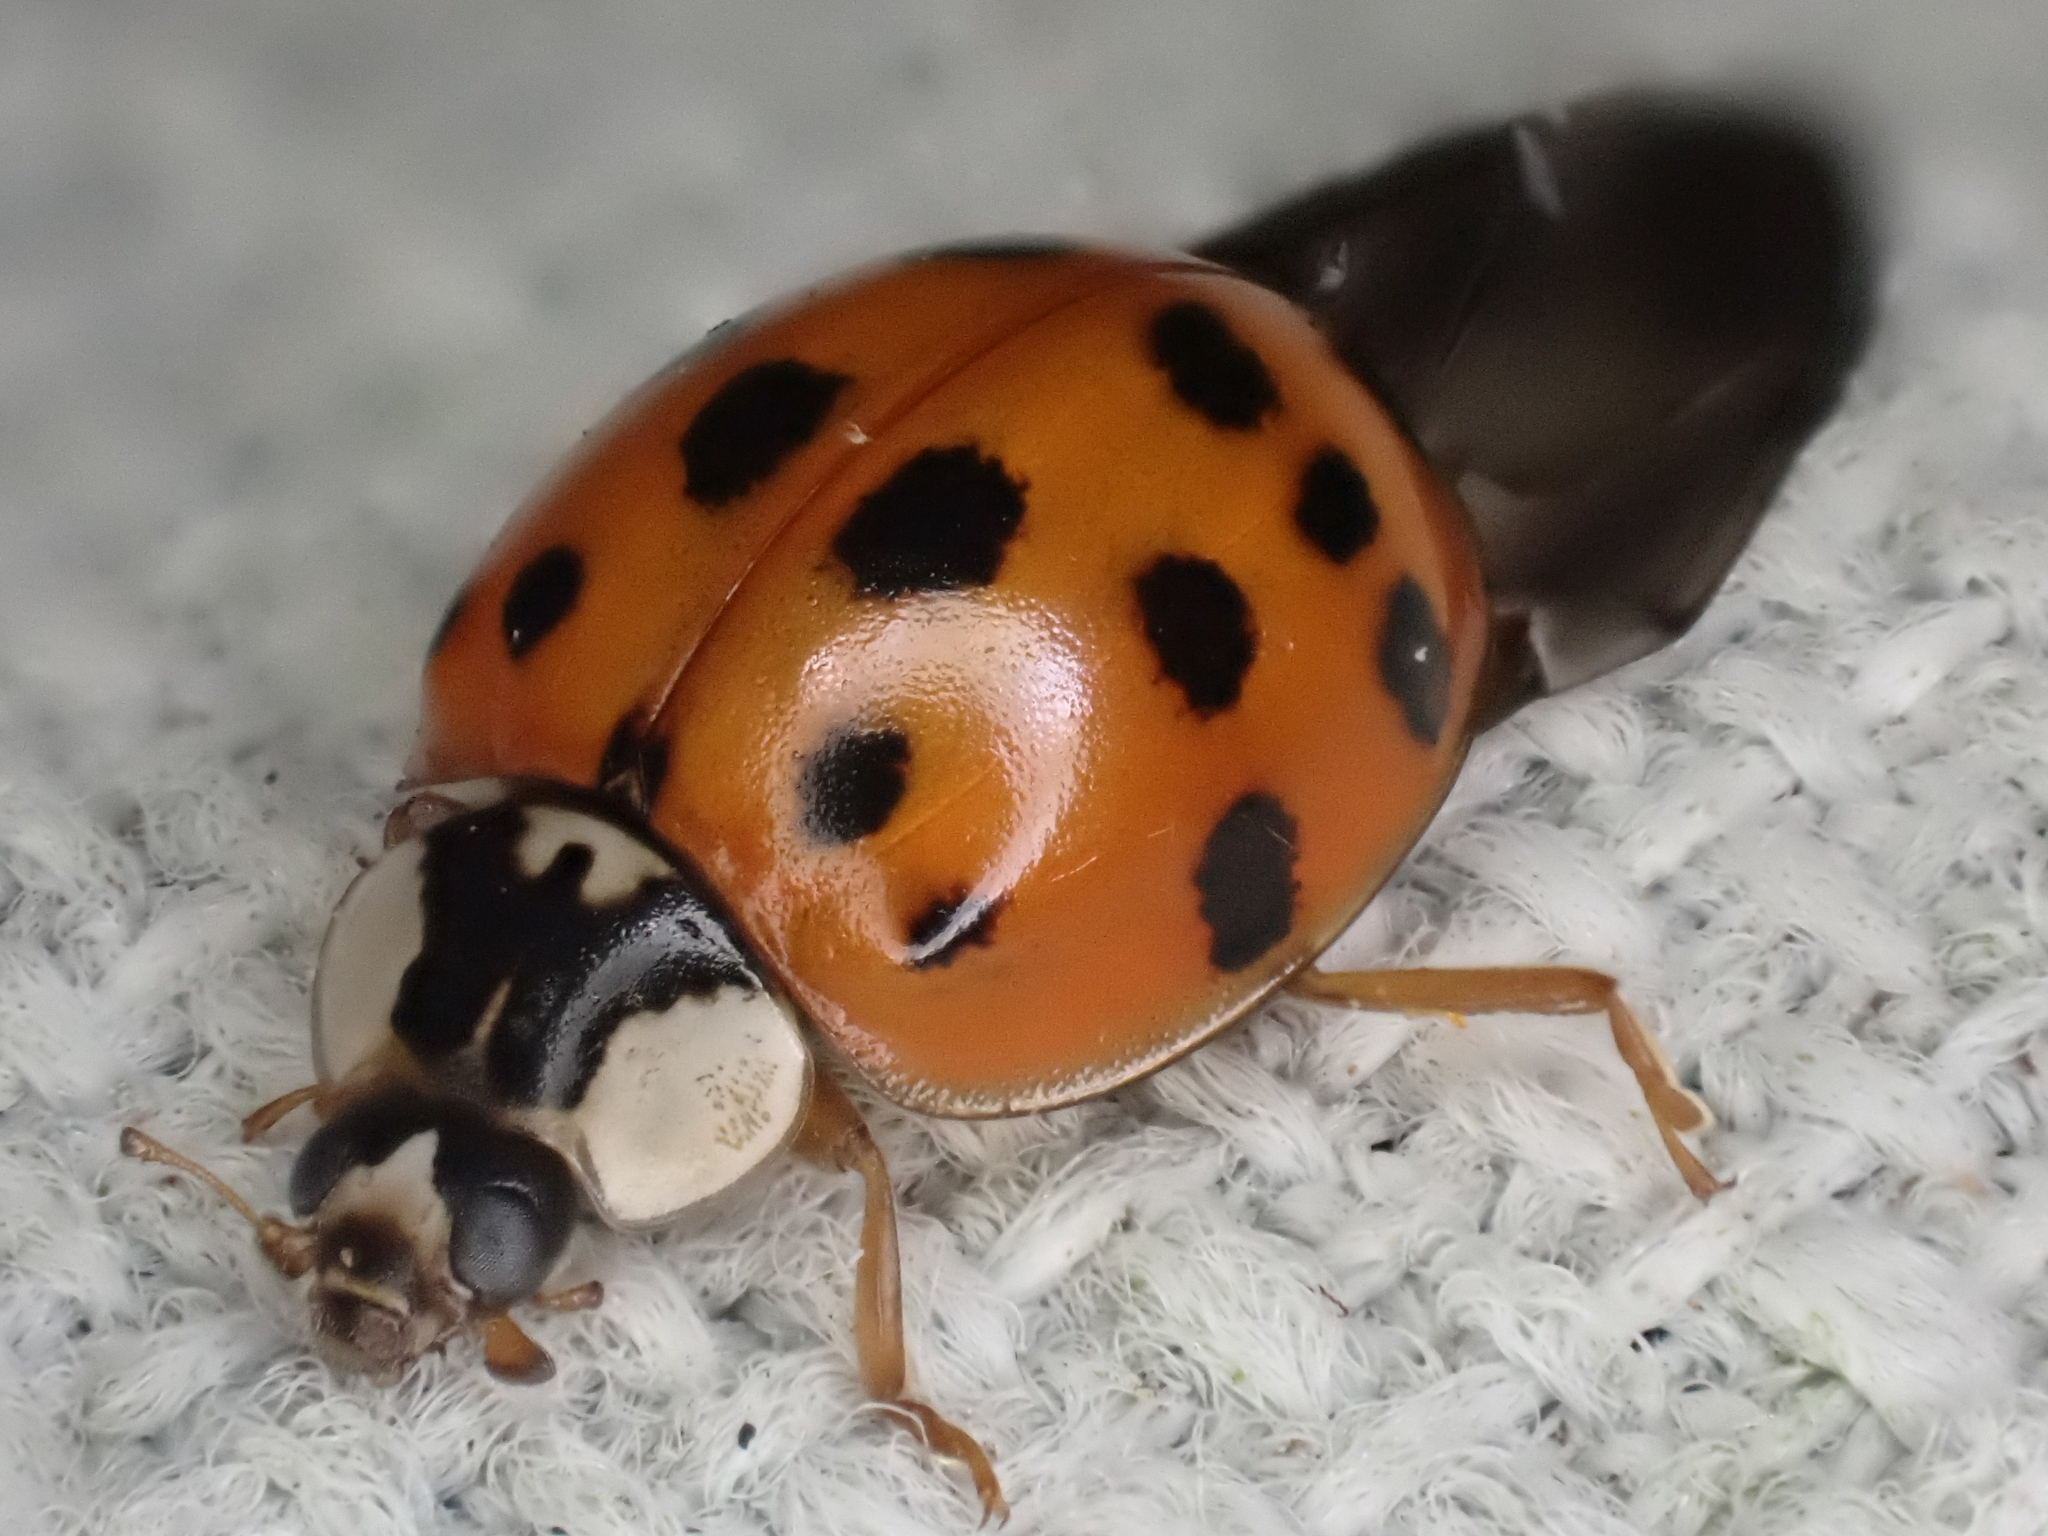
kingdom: Animalia
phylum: Arthropoda
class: Insecta
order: Coleoptera
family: Coccinellidae
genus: Harmonia
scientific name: Harmonia axyridis
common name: Harlequin ladybird
